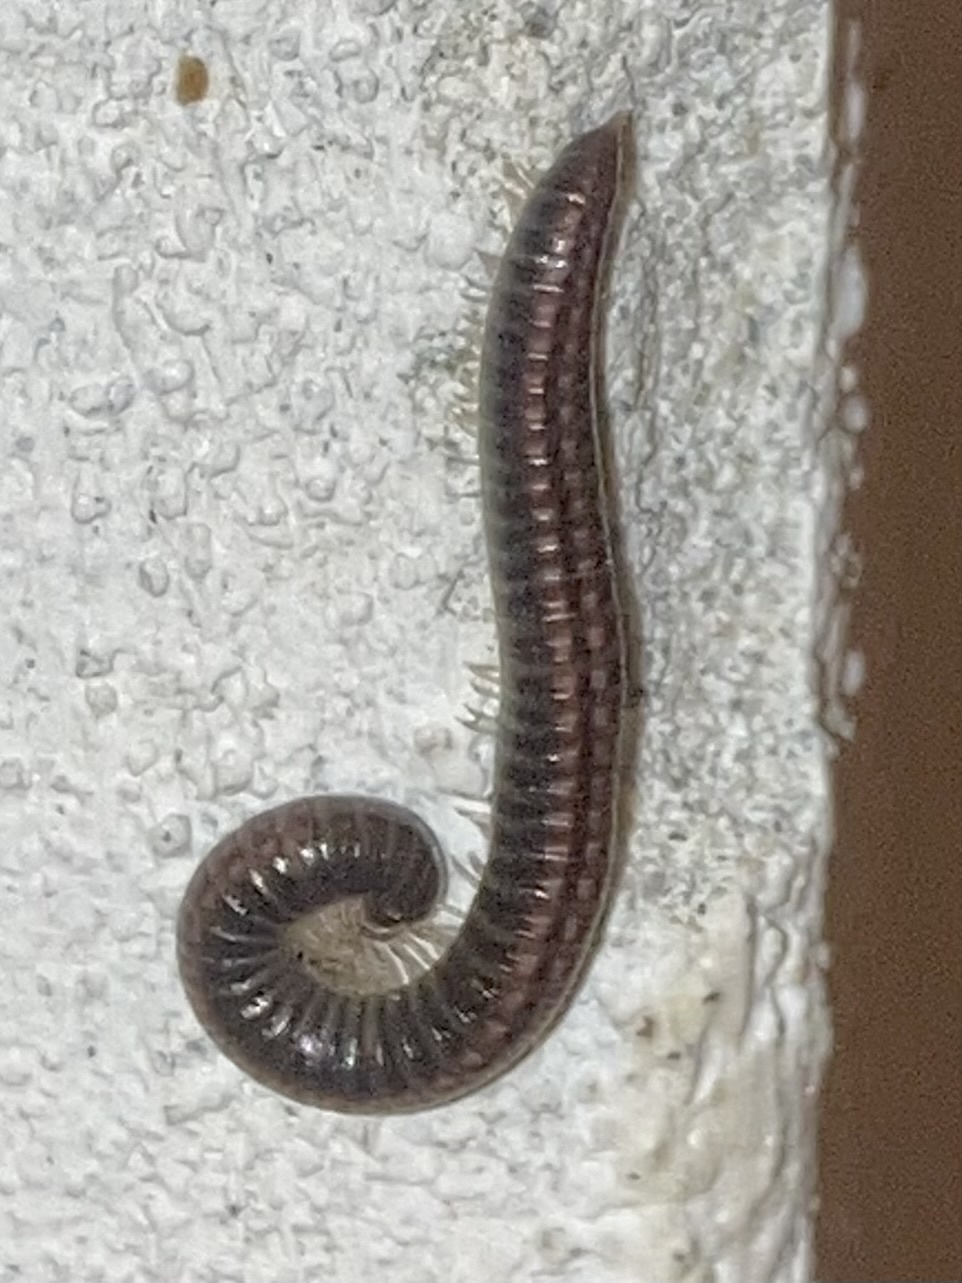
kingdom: Animalia
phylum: Arthropoda
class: Diplopoda
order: Julida
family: Julidae
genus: Ommatoiulus
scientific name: Ommatoiulus sabulosus
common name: Striped millipede
